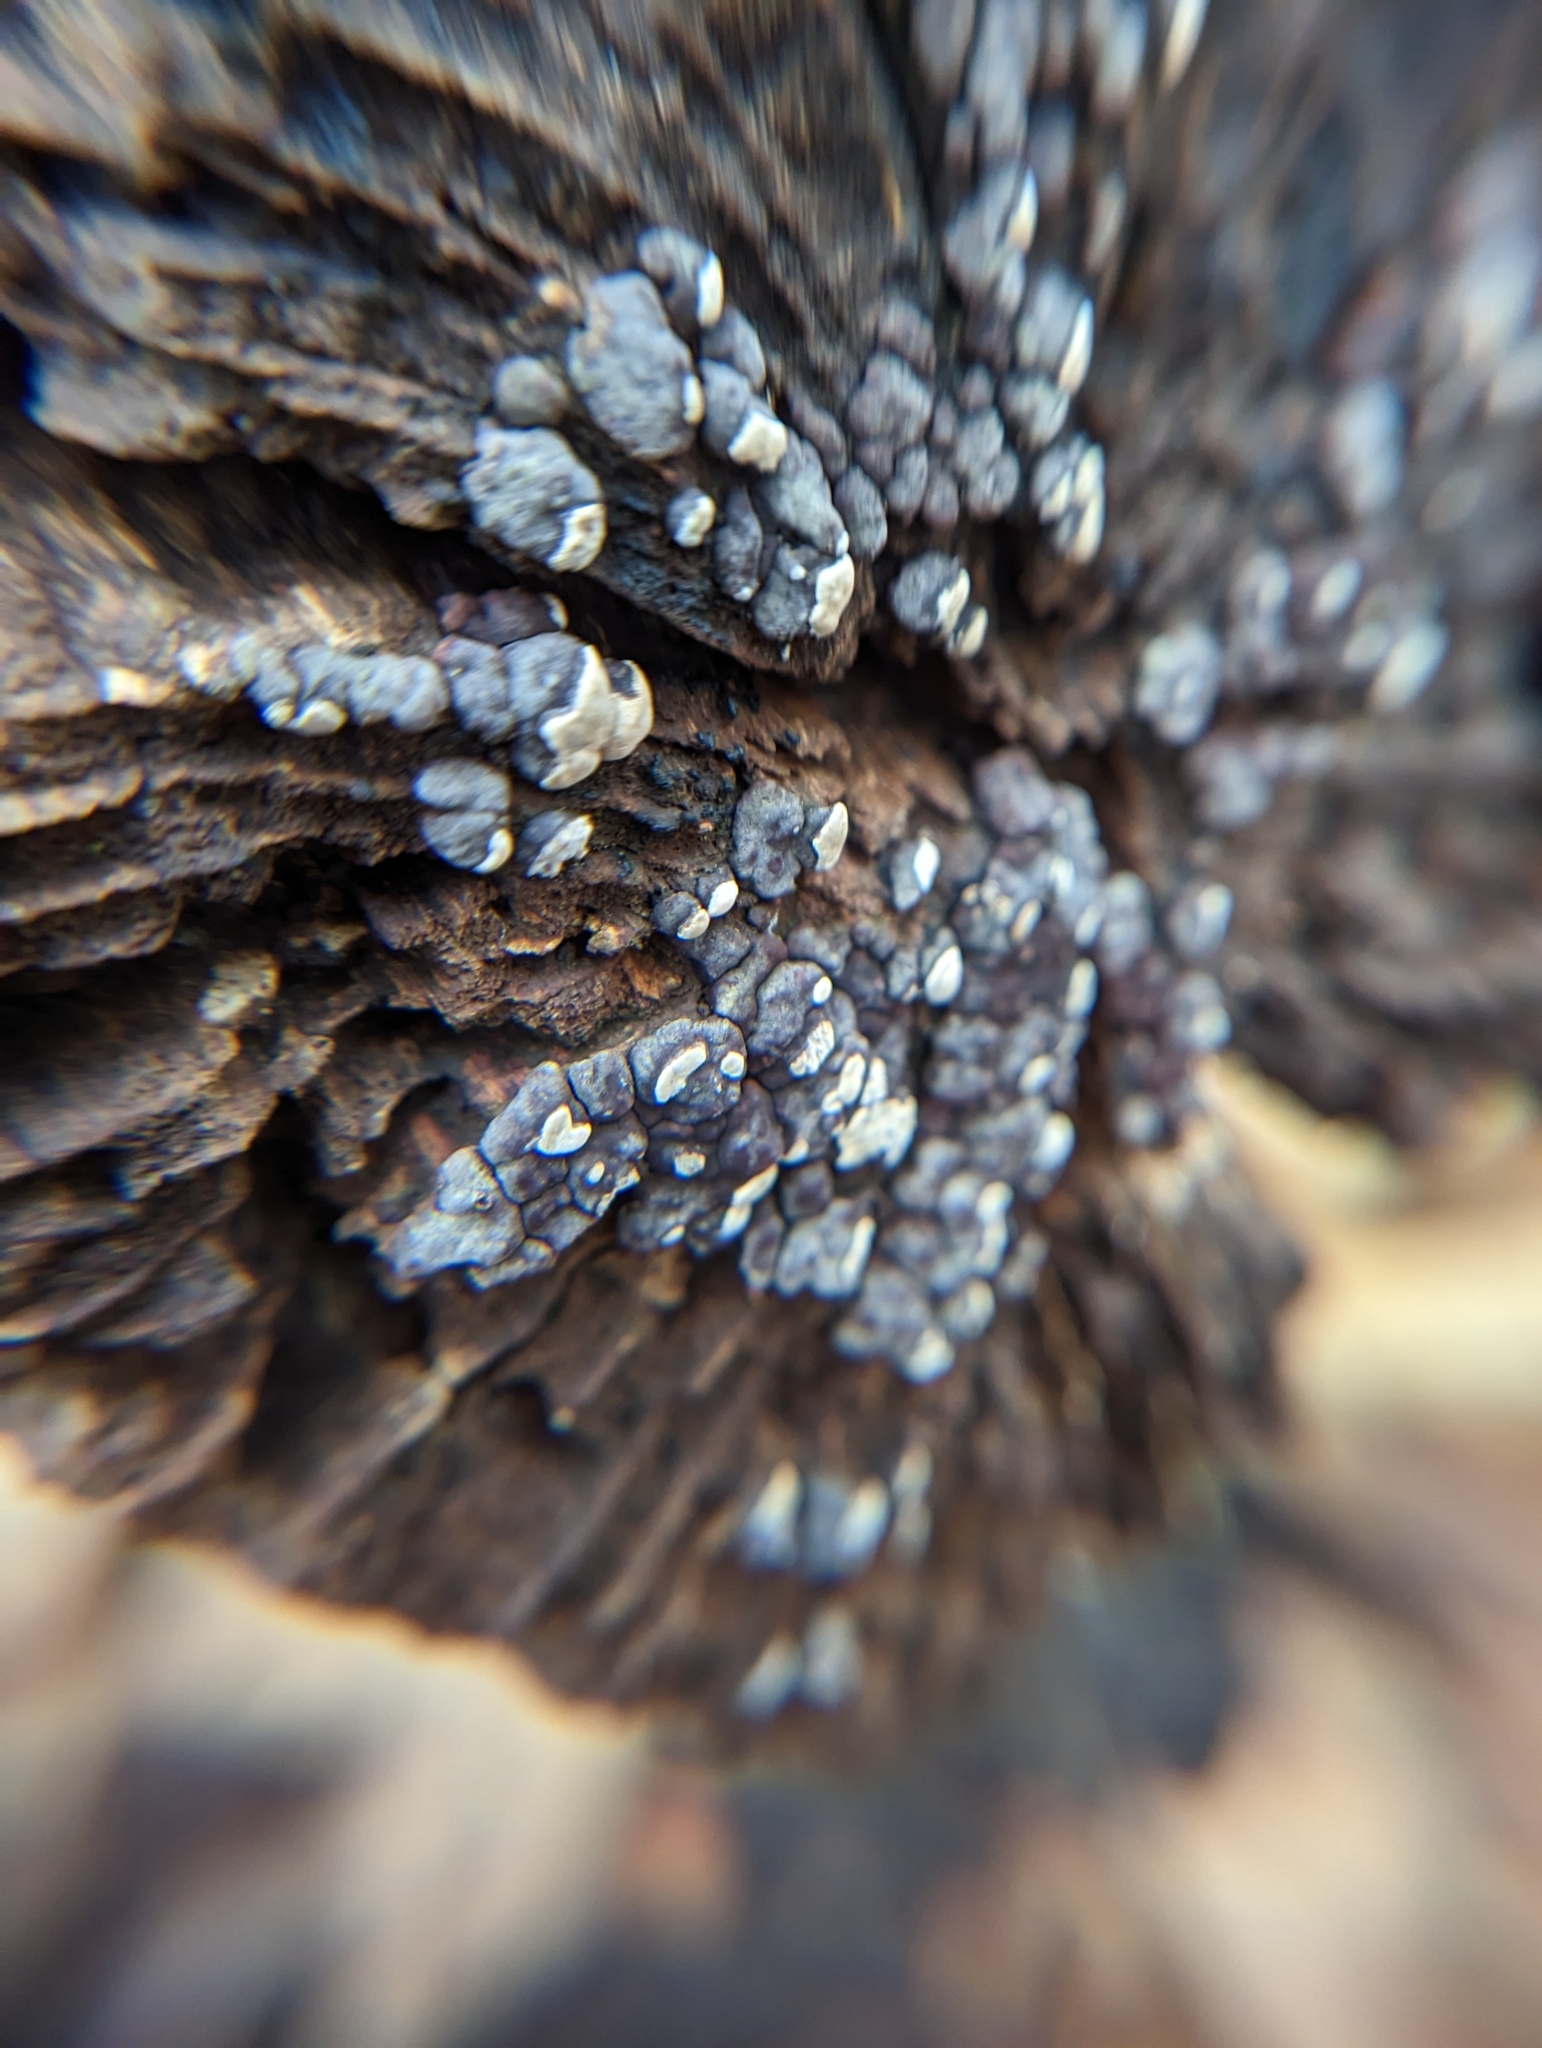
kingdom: Fungi
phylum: Basidiomycota
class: Agaricomycetes
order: Russulales
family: Stereaceae
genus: Xylobolus
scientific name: Xylobolus frustulatus
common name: Ceramic parchment
